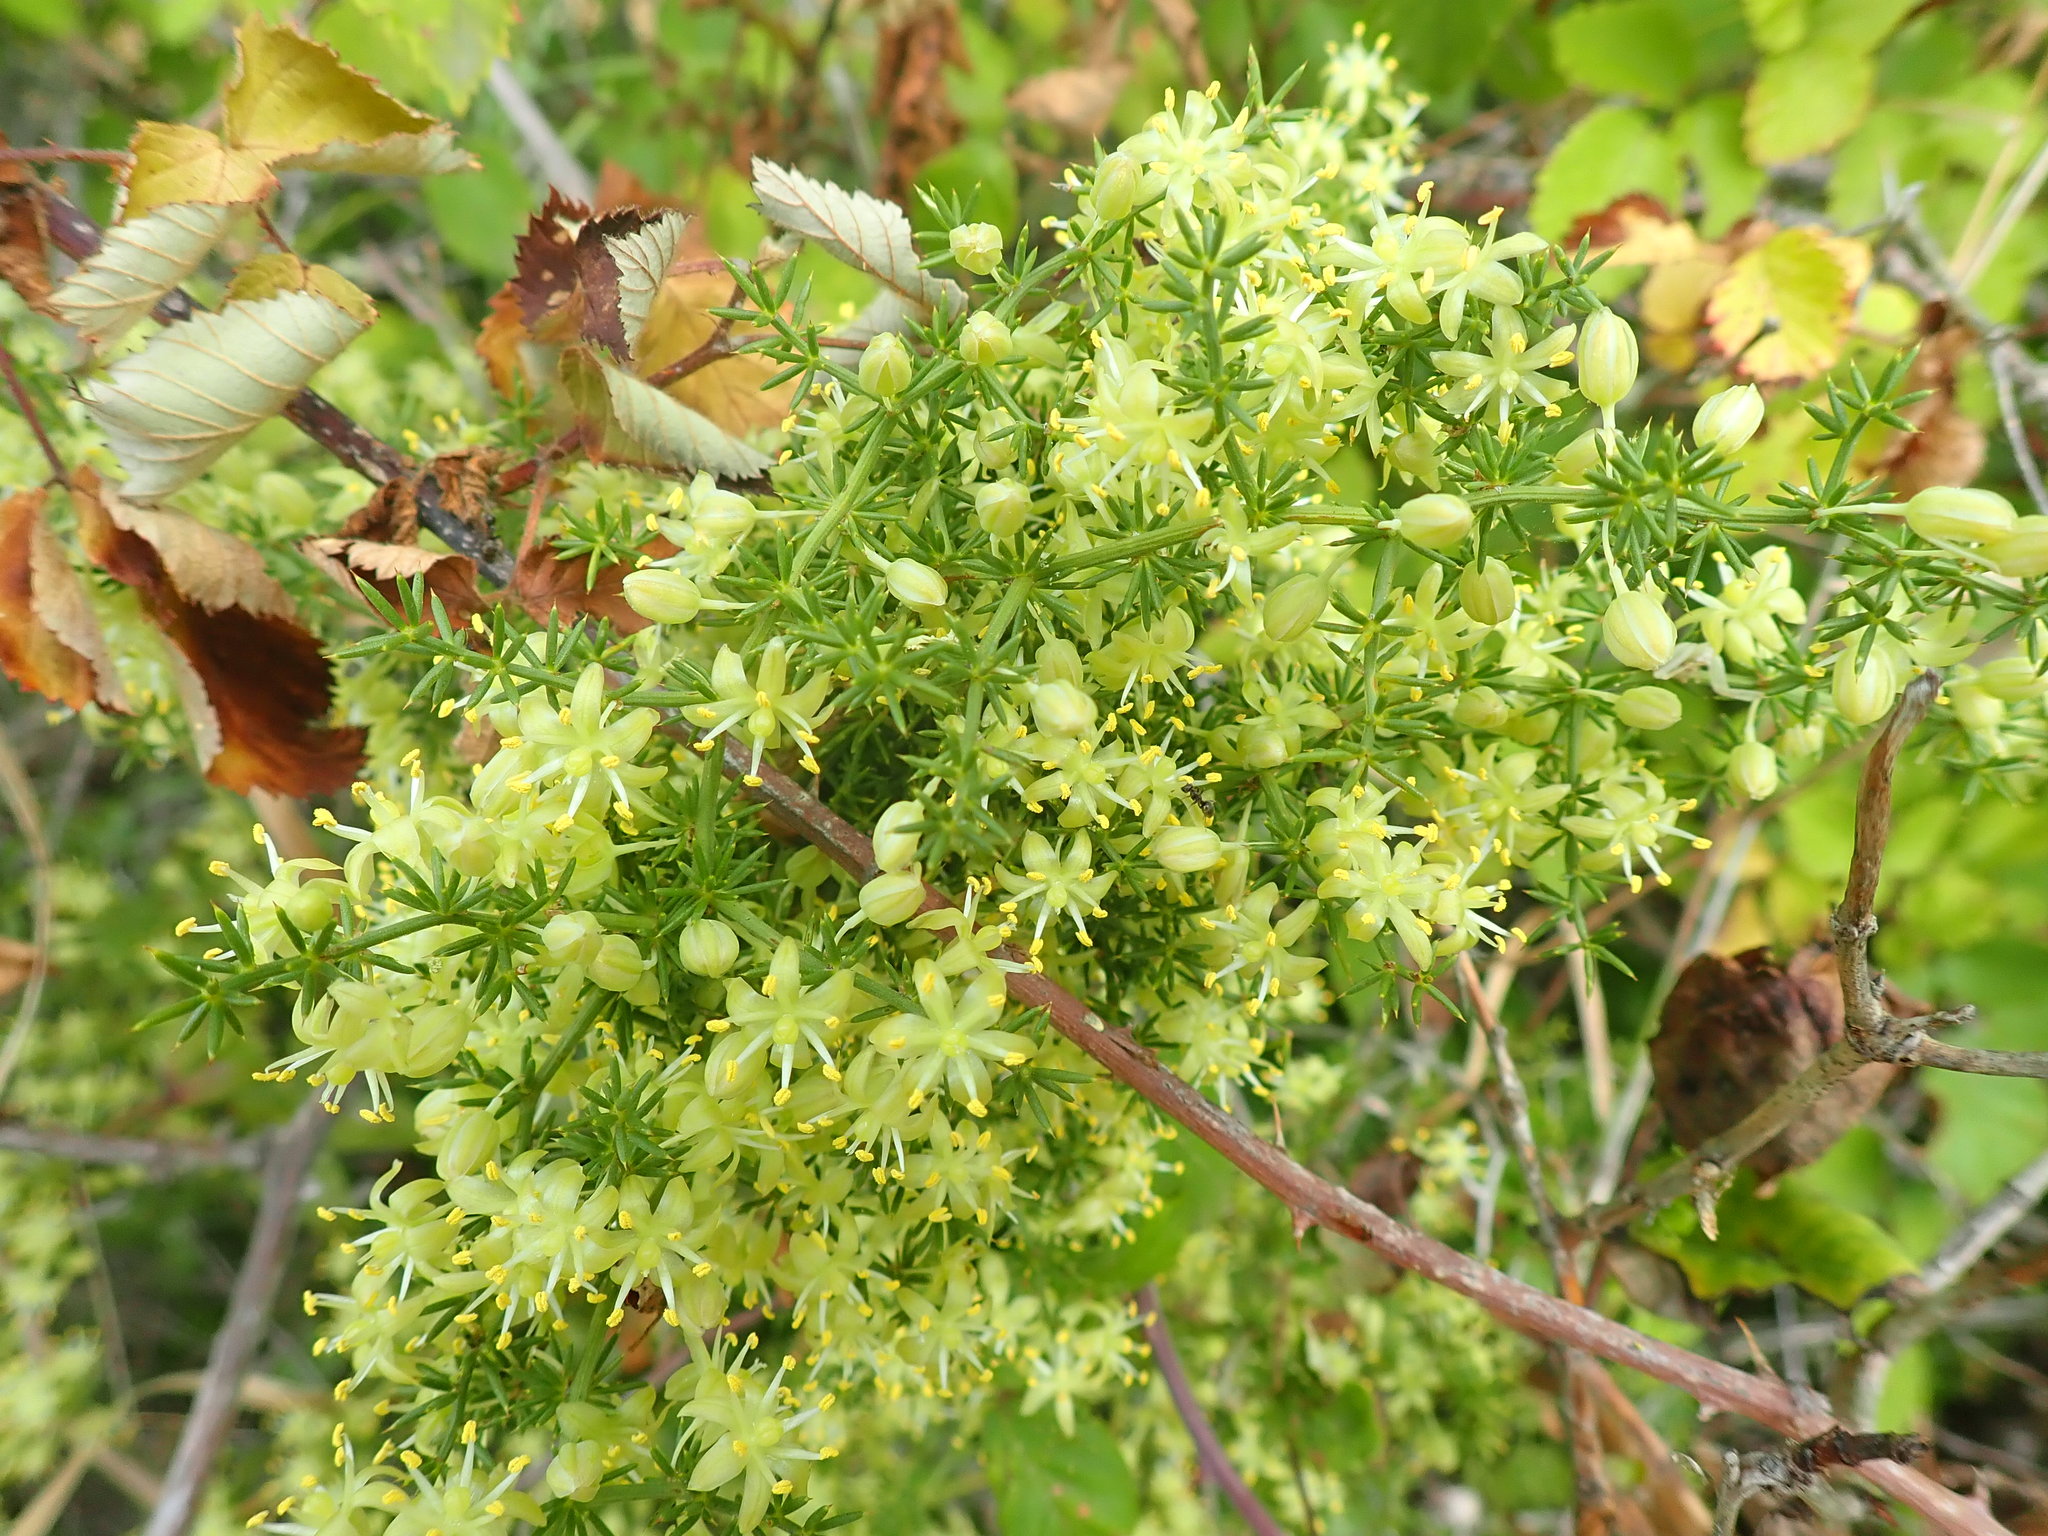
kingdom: Plantae
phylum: Tracheophyta
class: Liliopsida
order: Asparagales
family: Asparagaceae
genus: Asparagus
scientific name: Asparagus acutifolius
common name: Wild asparagus
